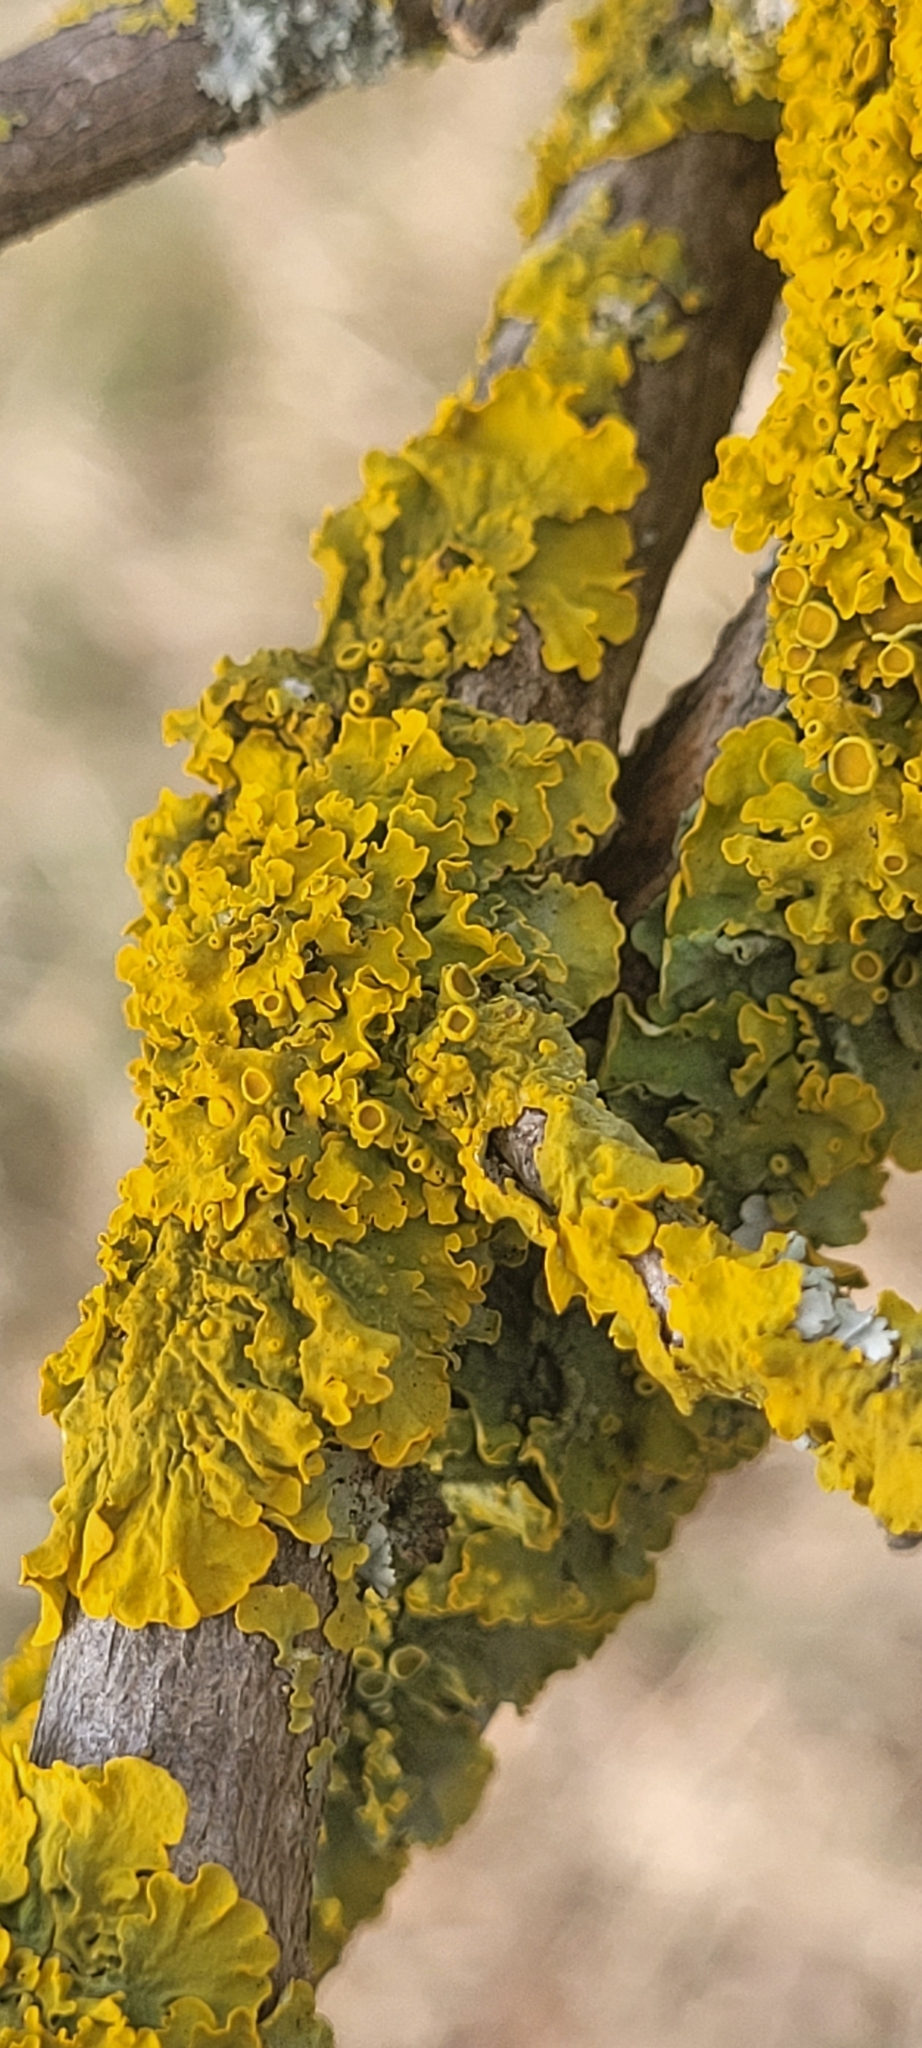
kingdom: Fungi
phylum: Ascomycota
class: Lecanoromycetes
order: Teloschistales
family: Teloschistaceae
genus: Xanthoria
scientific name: Xanthoria parietina
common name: Common orange lichen
